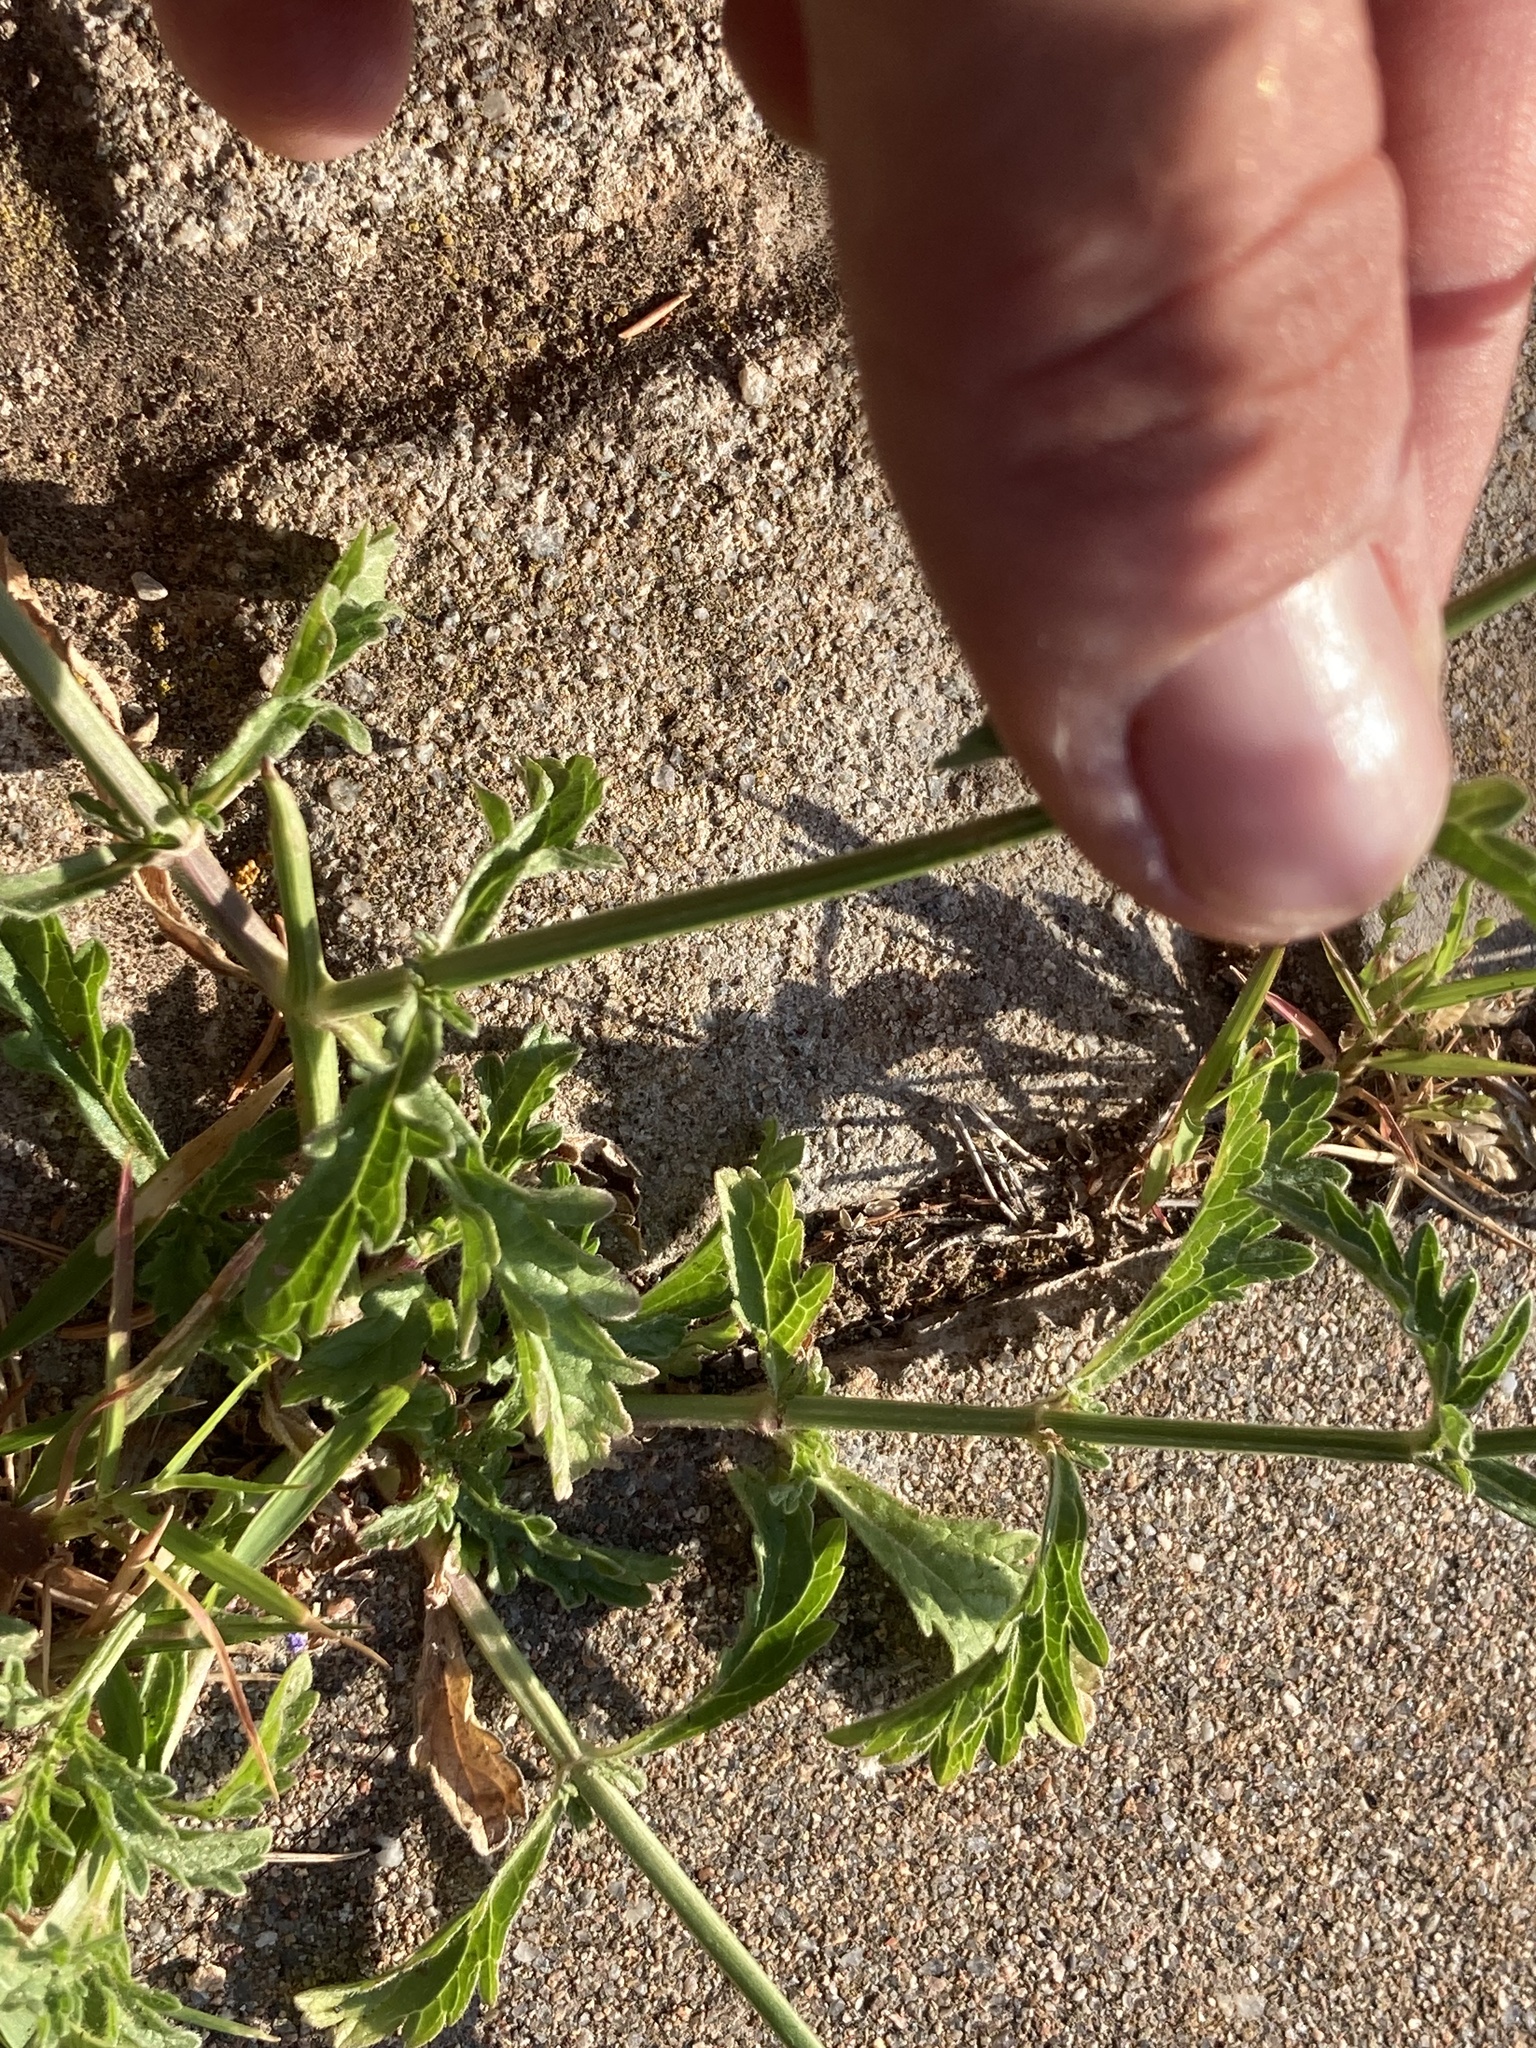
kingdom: Plantae
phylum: Tracheophyta
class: Magnoliopsida
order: Lamiales
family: Verbenaceae
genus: Verbena
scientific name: Verbena officinalis
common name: Vervain
